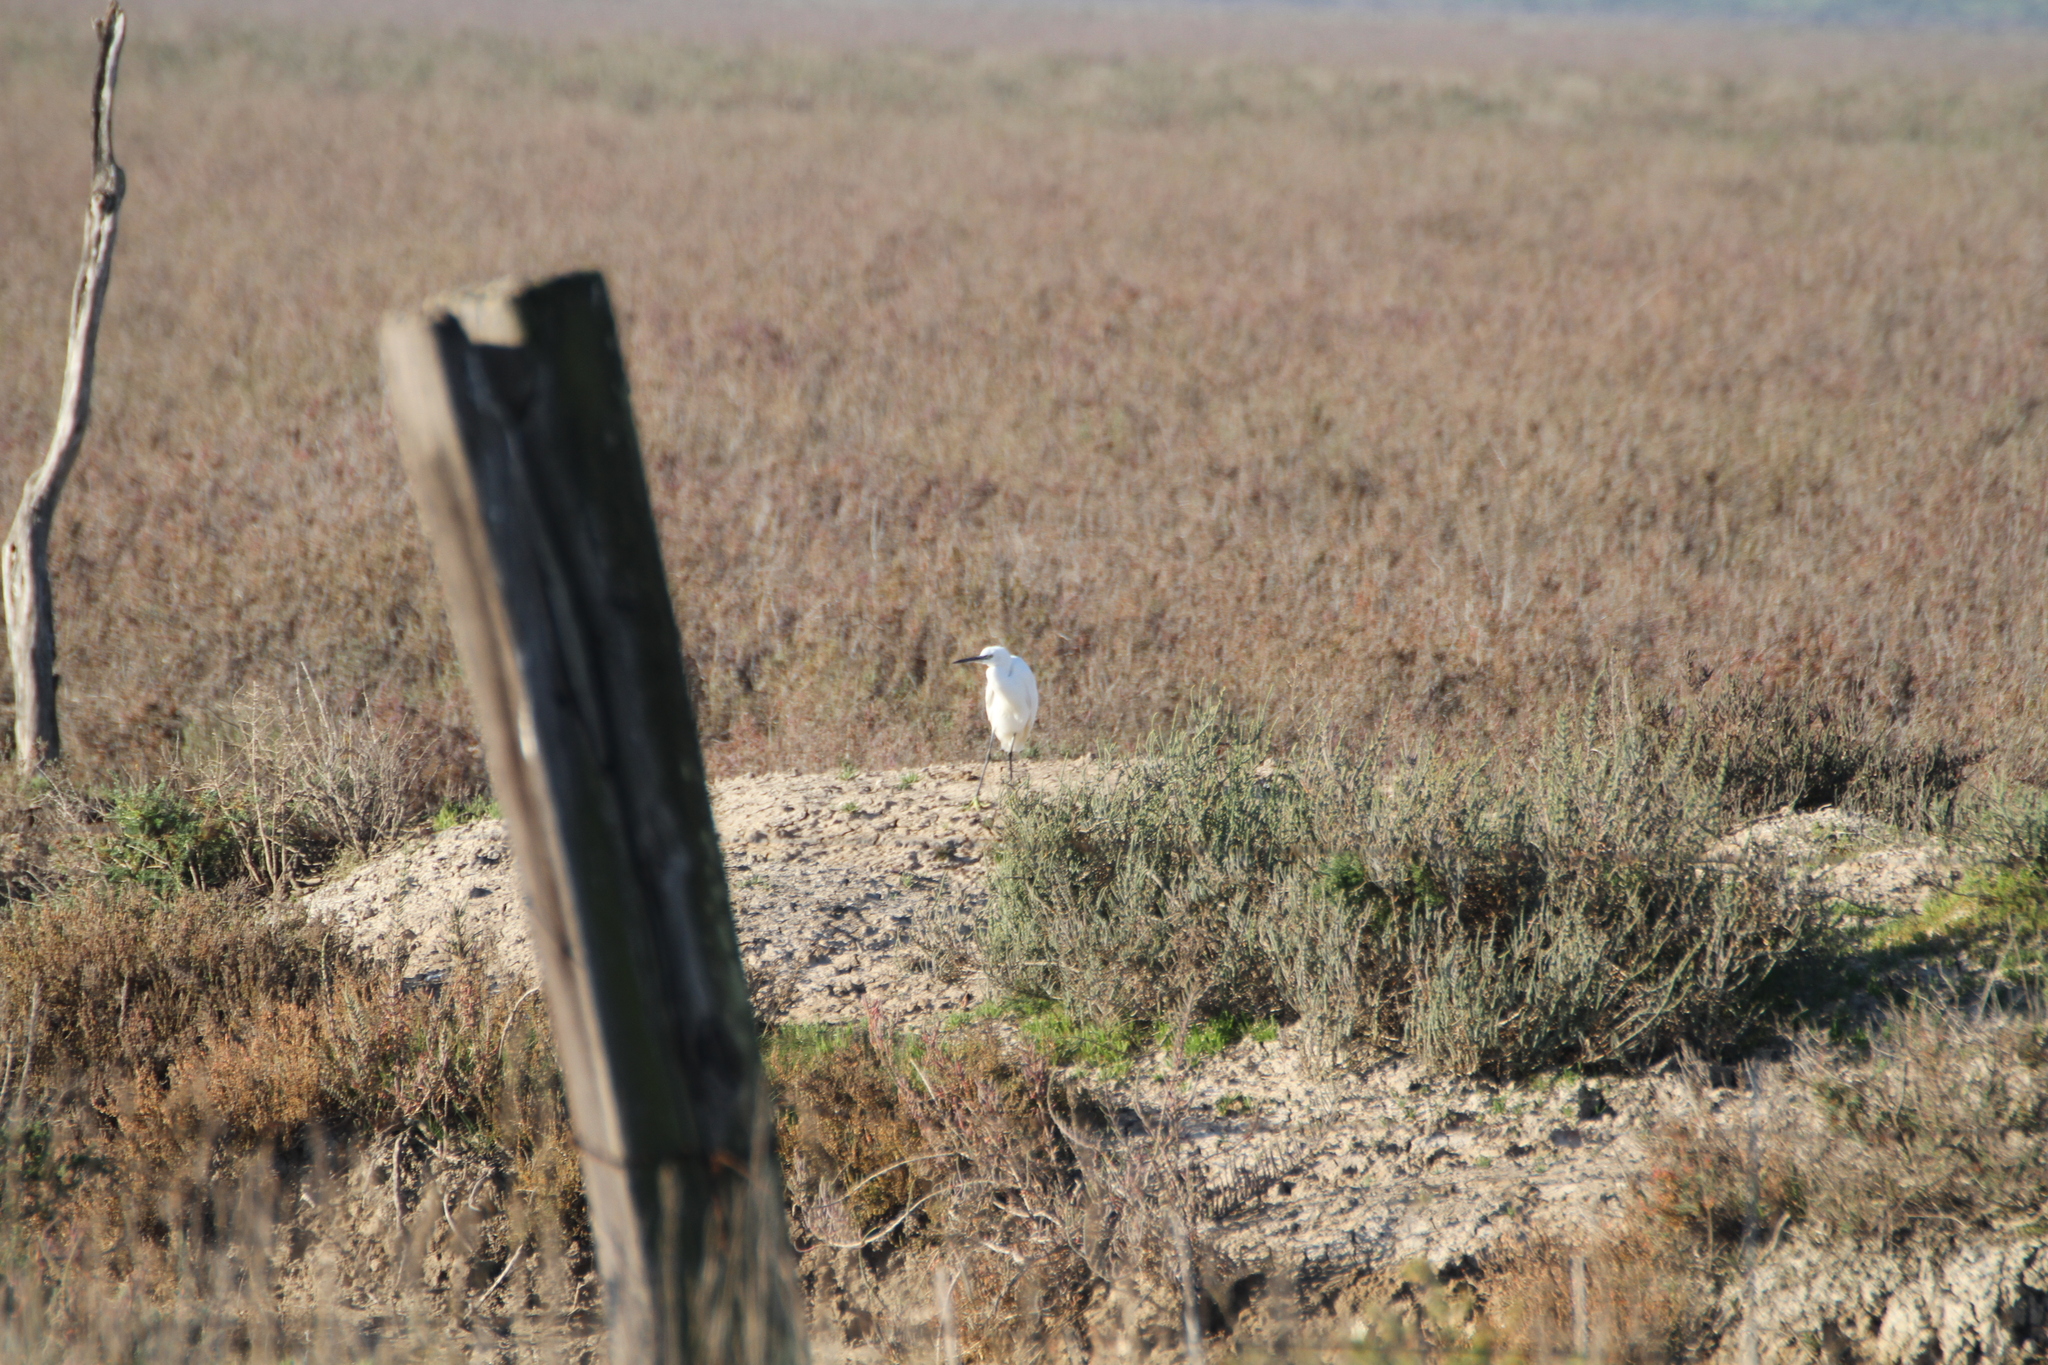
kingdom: Animalia
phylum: Chordata
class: Aves
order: Pelecaniformes
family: Ardeidae
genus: Egretta
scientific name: Egretta garzetta
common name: Little egret
